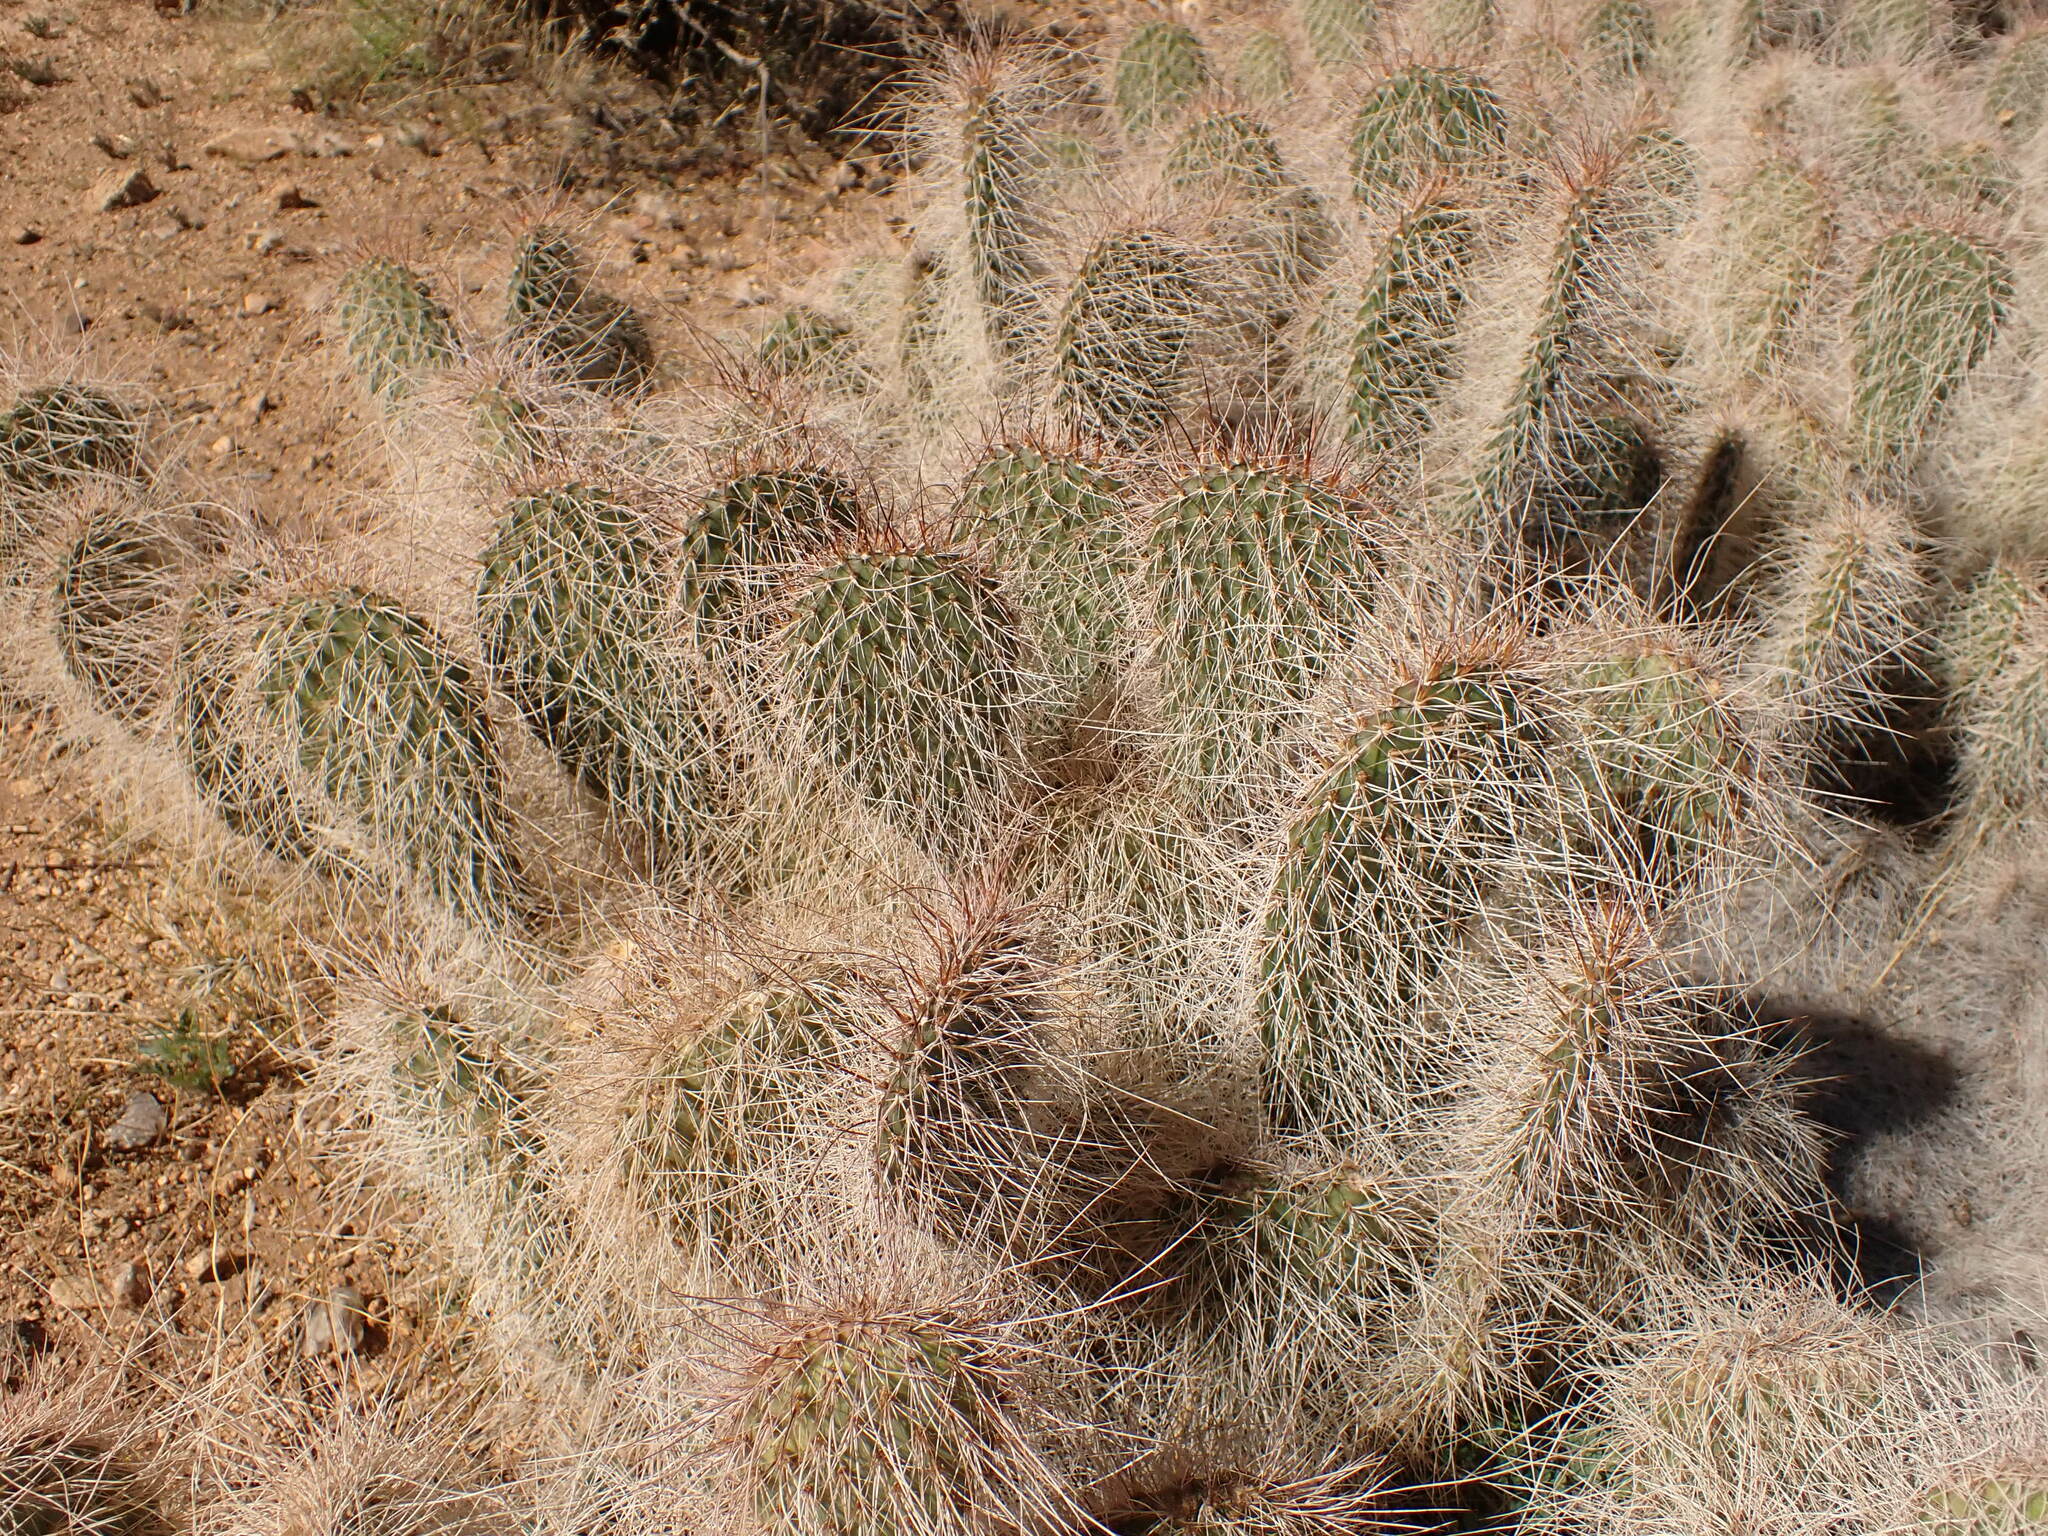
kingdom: Plantae
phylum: Tracheophyta
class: Magnoliopsida
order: Caryophyllales
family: Cactaceae
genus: Opuntia
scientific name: Opuntia polyacantha
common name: Plains prickly-pear
